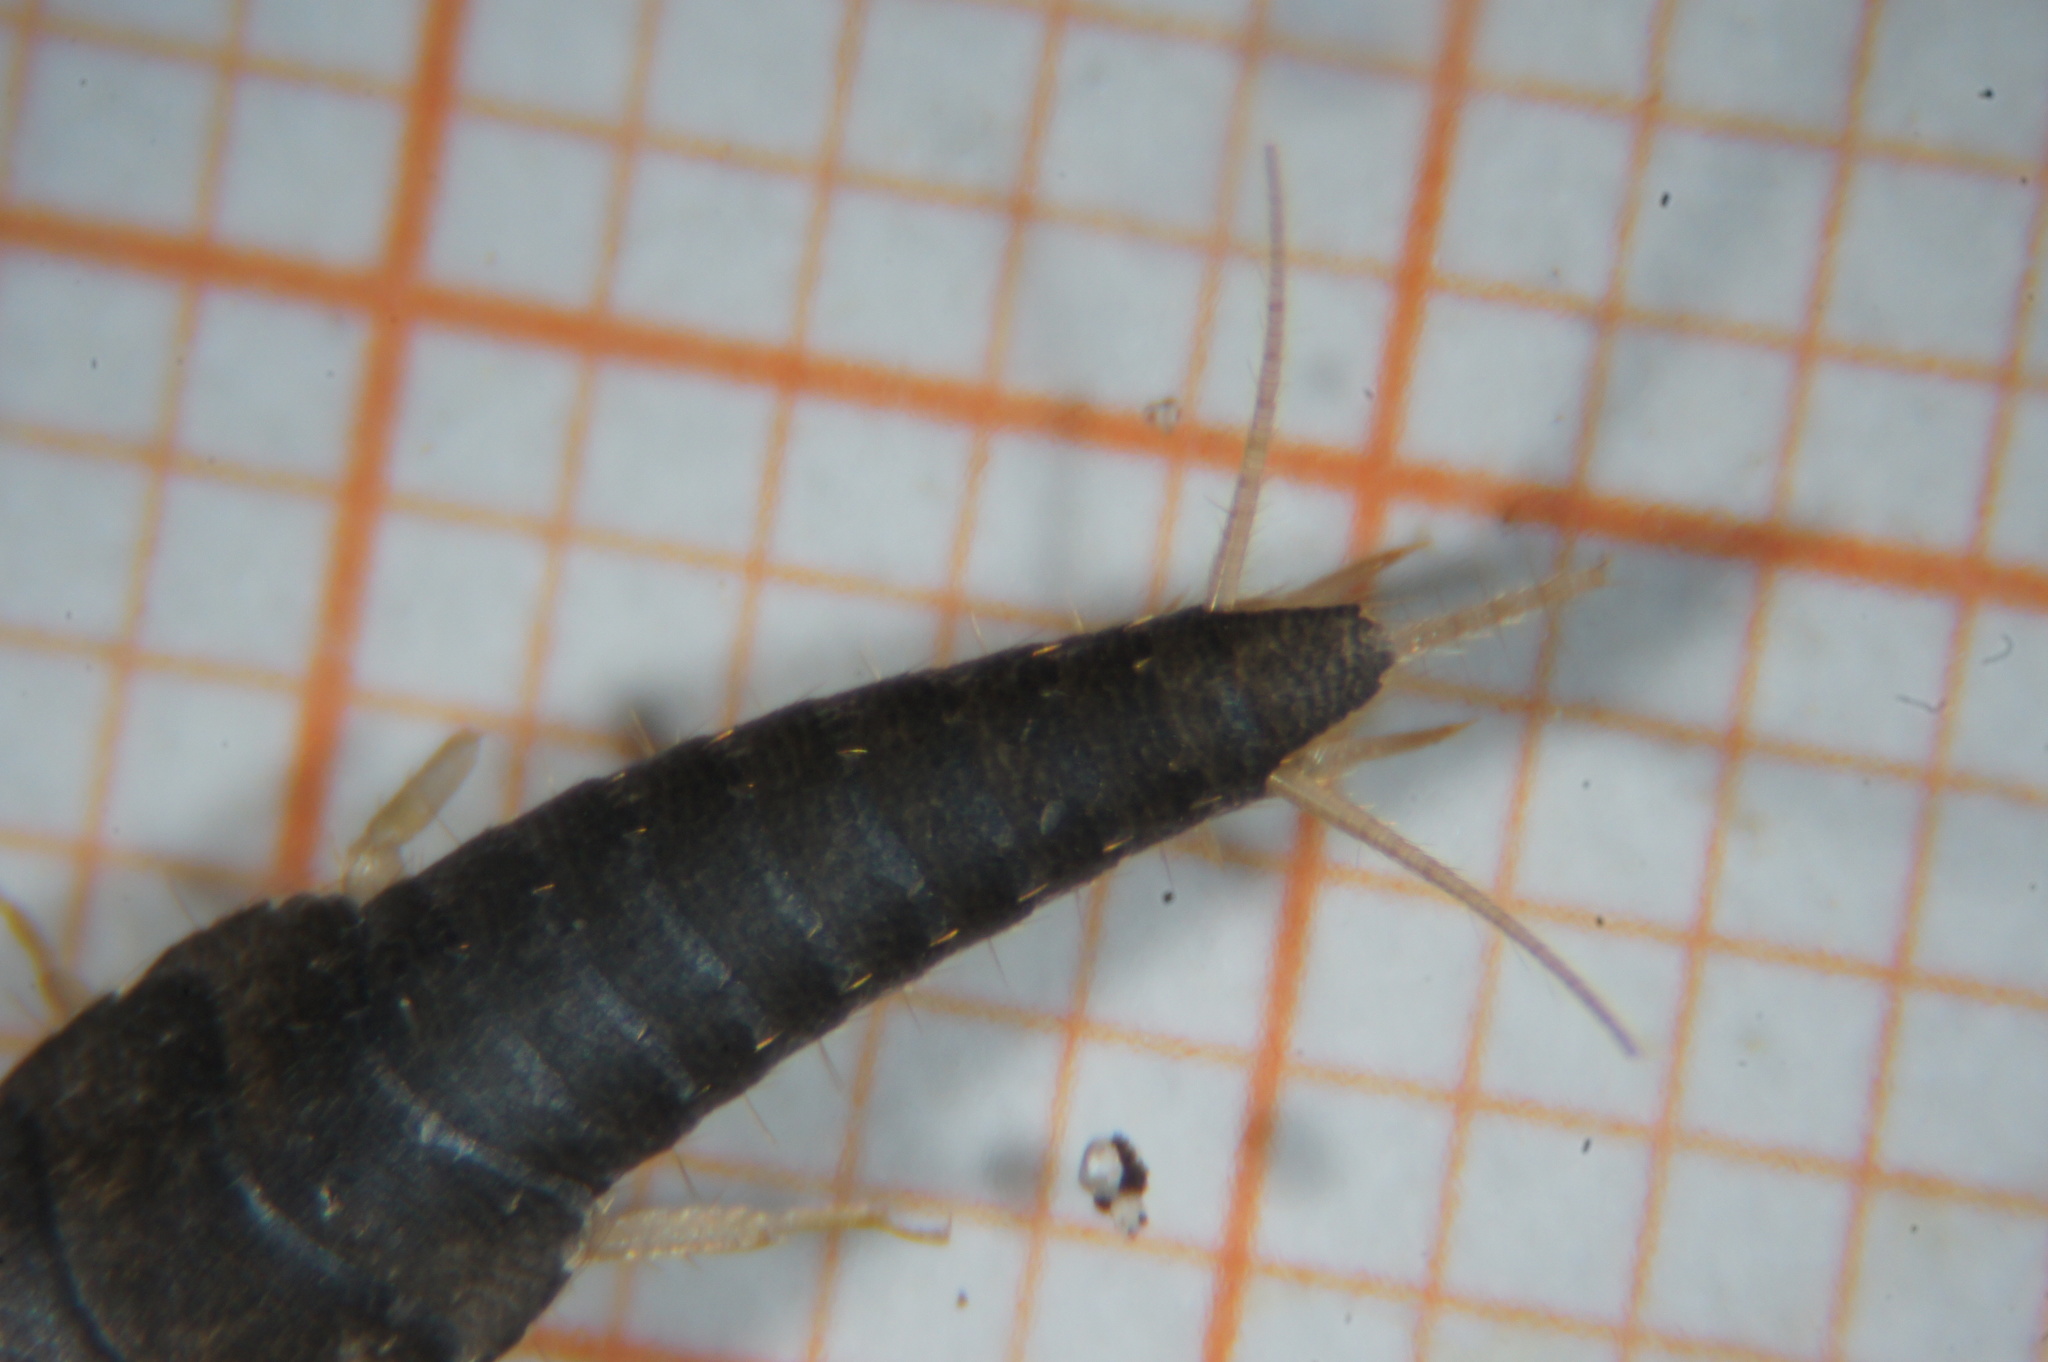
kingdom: Animalia
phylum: Arthropoda
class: Insecta
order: Zygentoma
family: Lepismatidae
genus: Lepisma
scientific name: Lepisma saccharinum
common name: Silverfish
